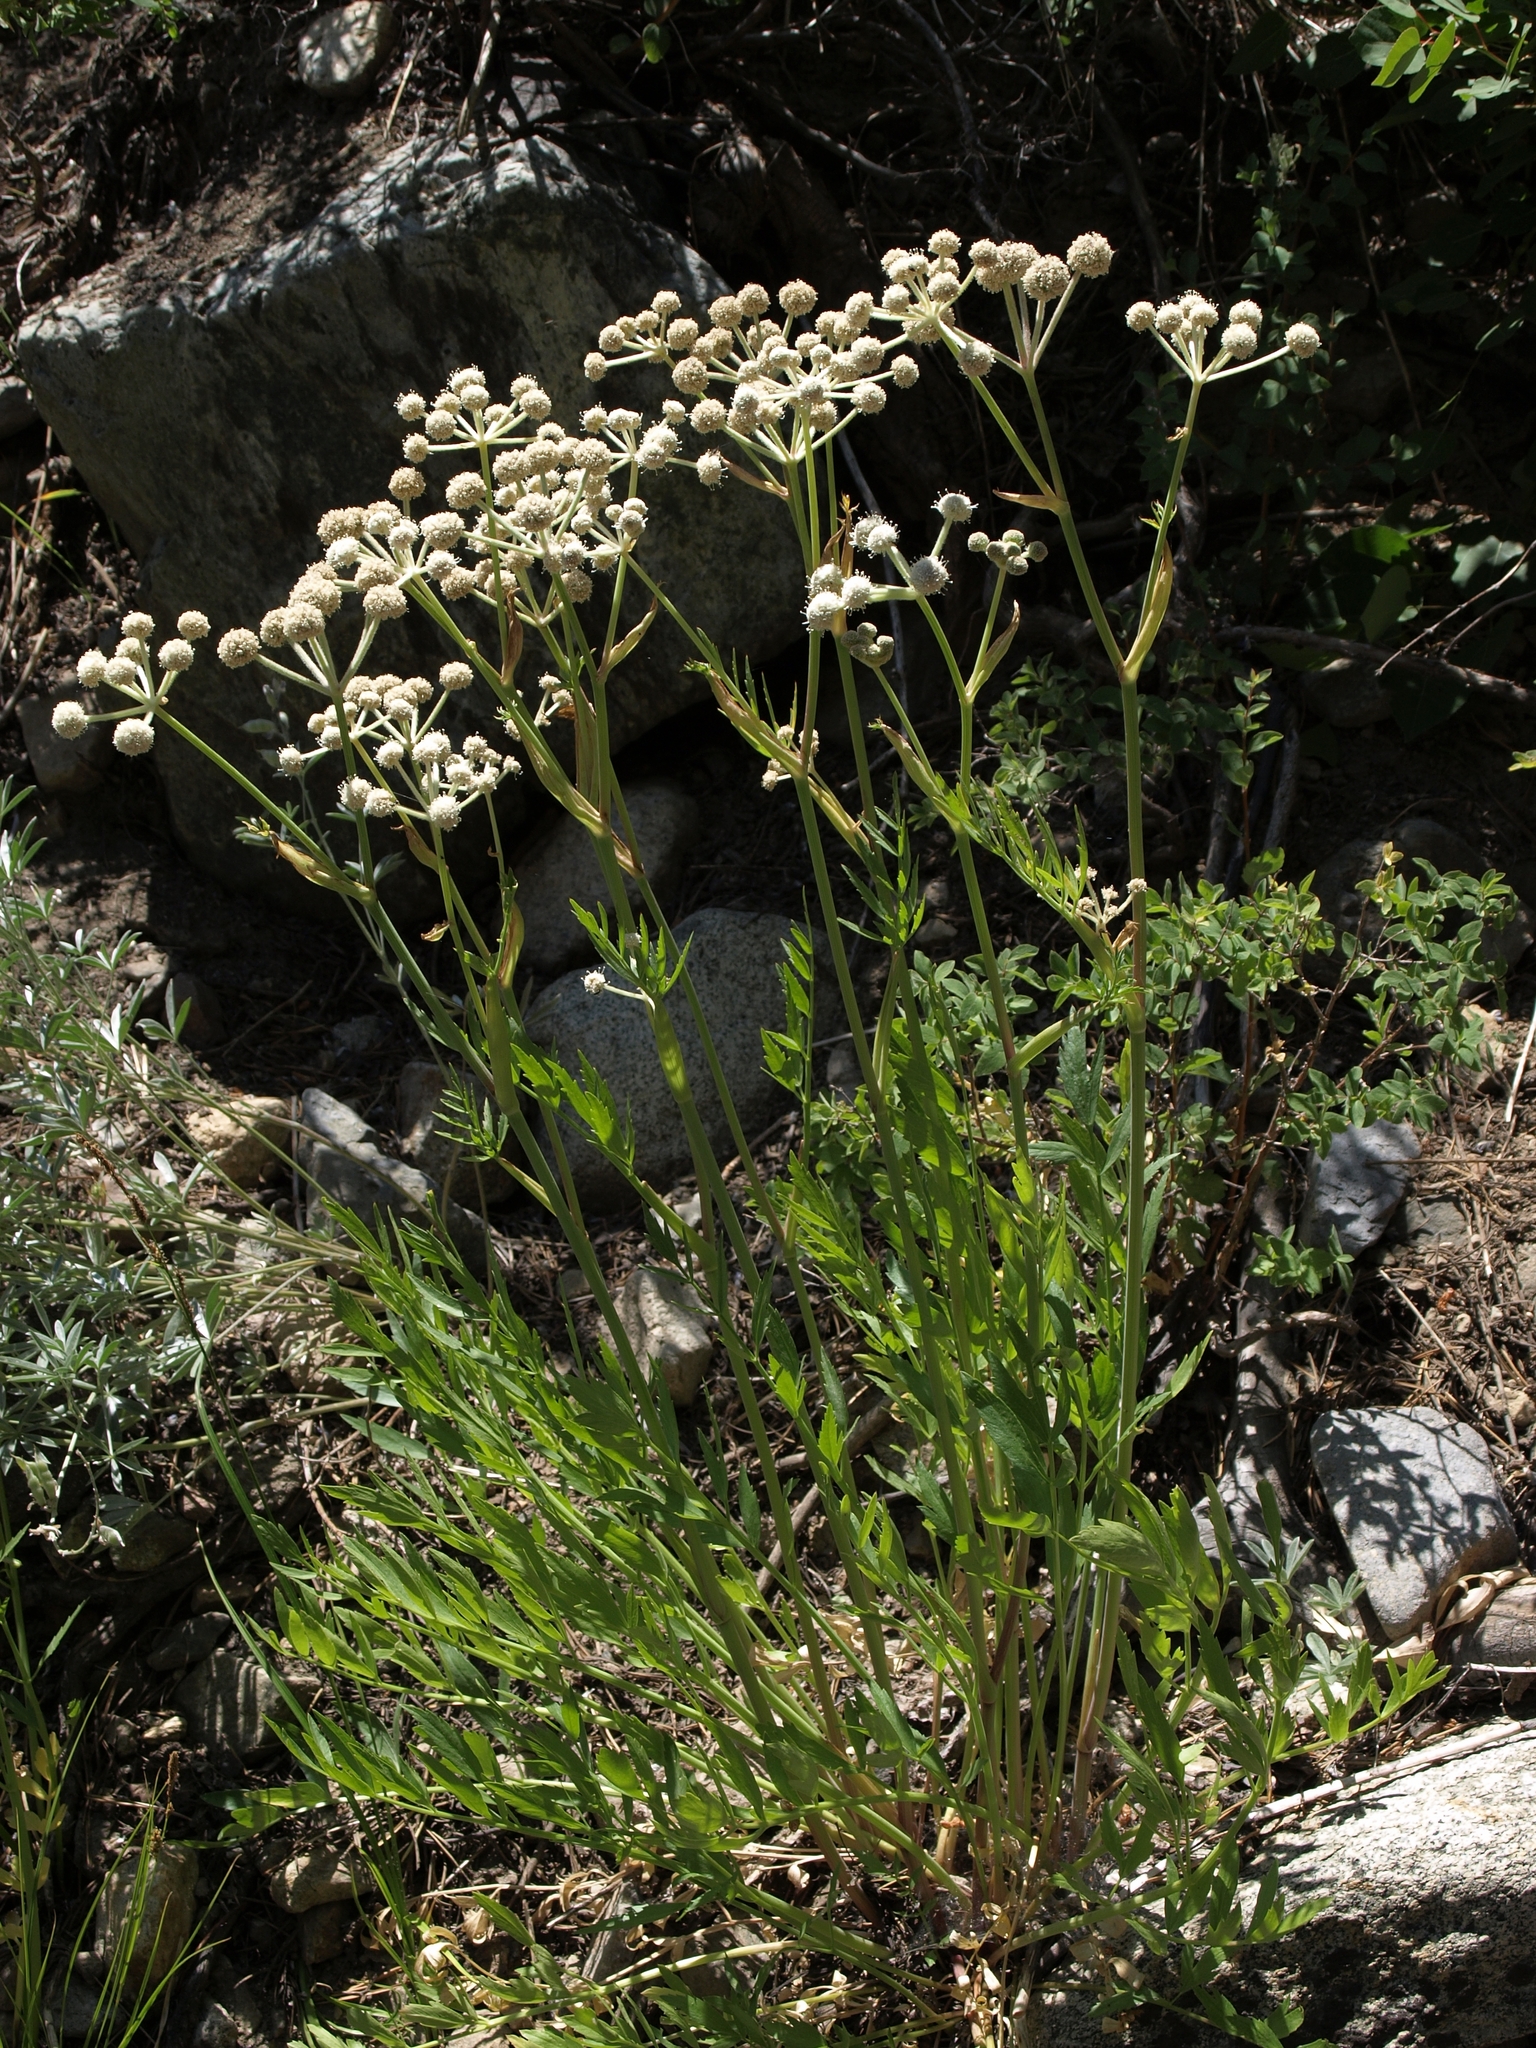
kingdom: Plantae
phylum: Tracheophyta
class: Magnoliopsida
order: Apiales
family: Apiaceae
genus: Angelica
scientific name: Angelica capitellata
